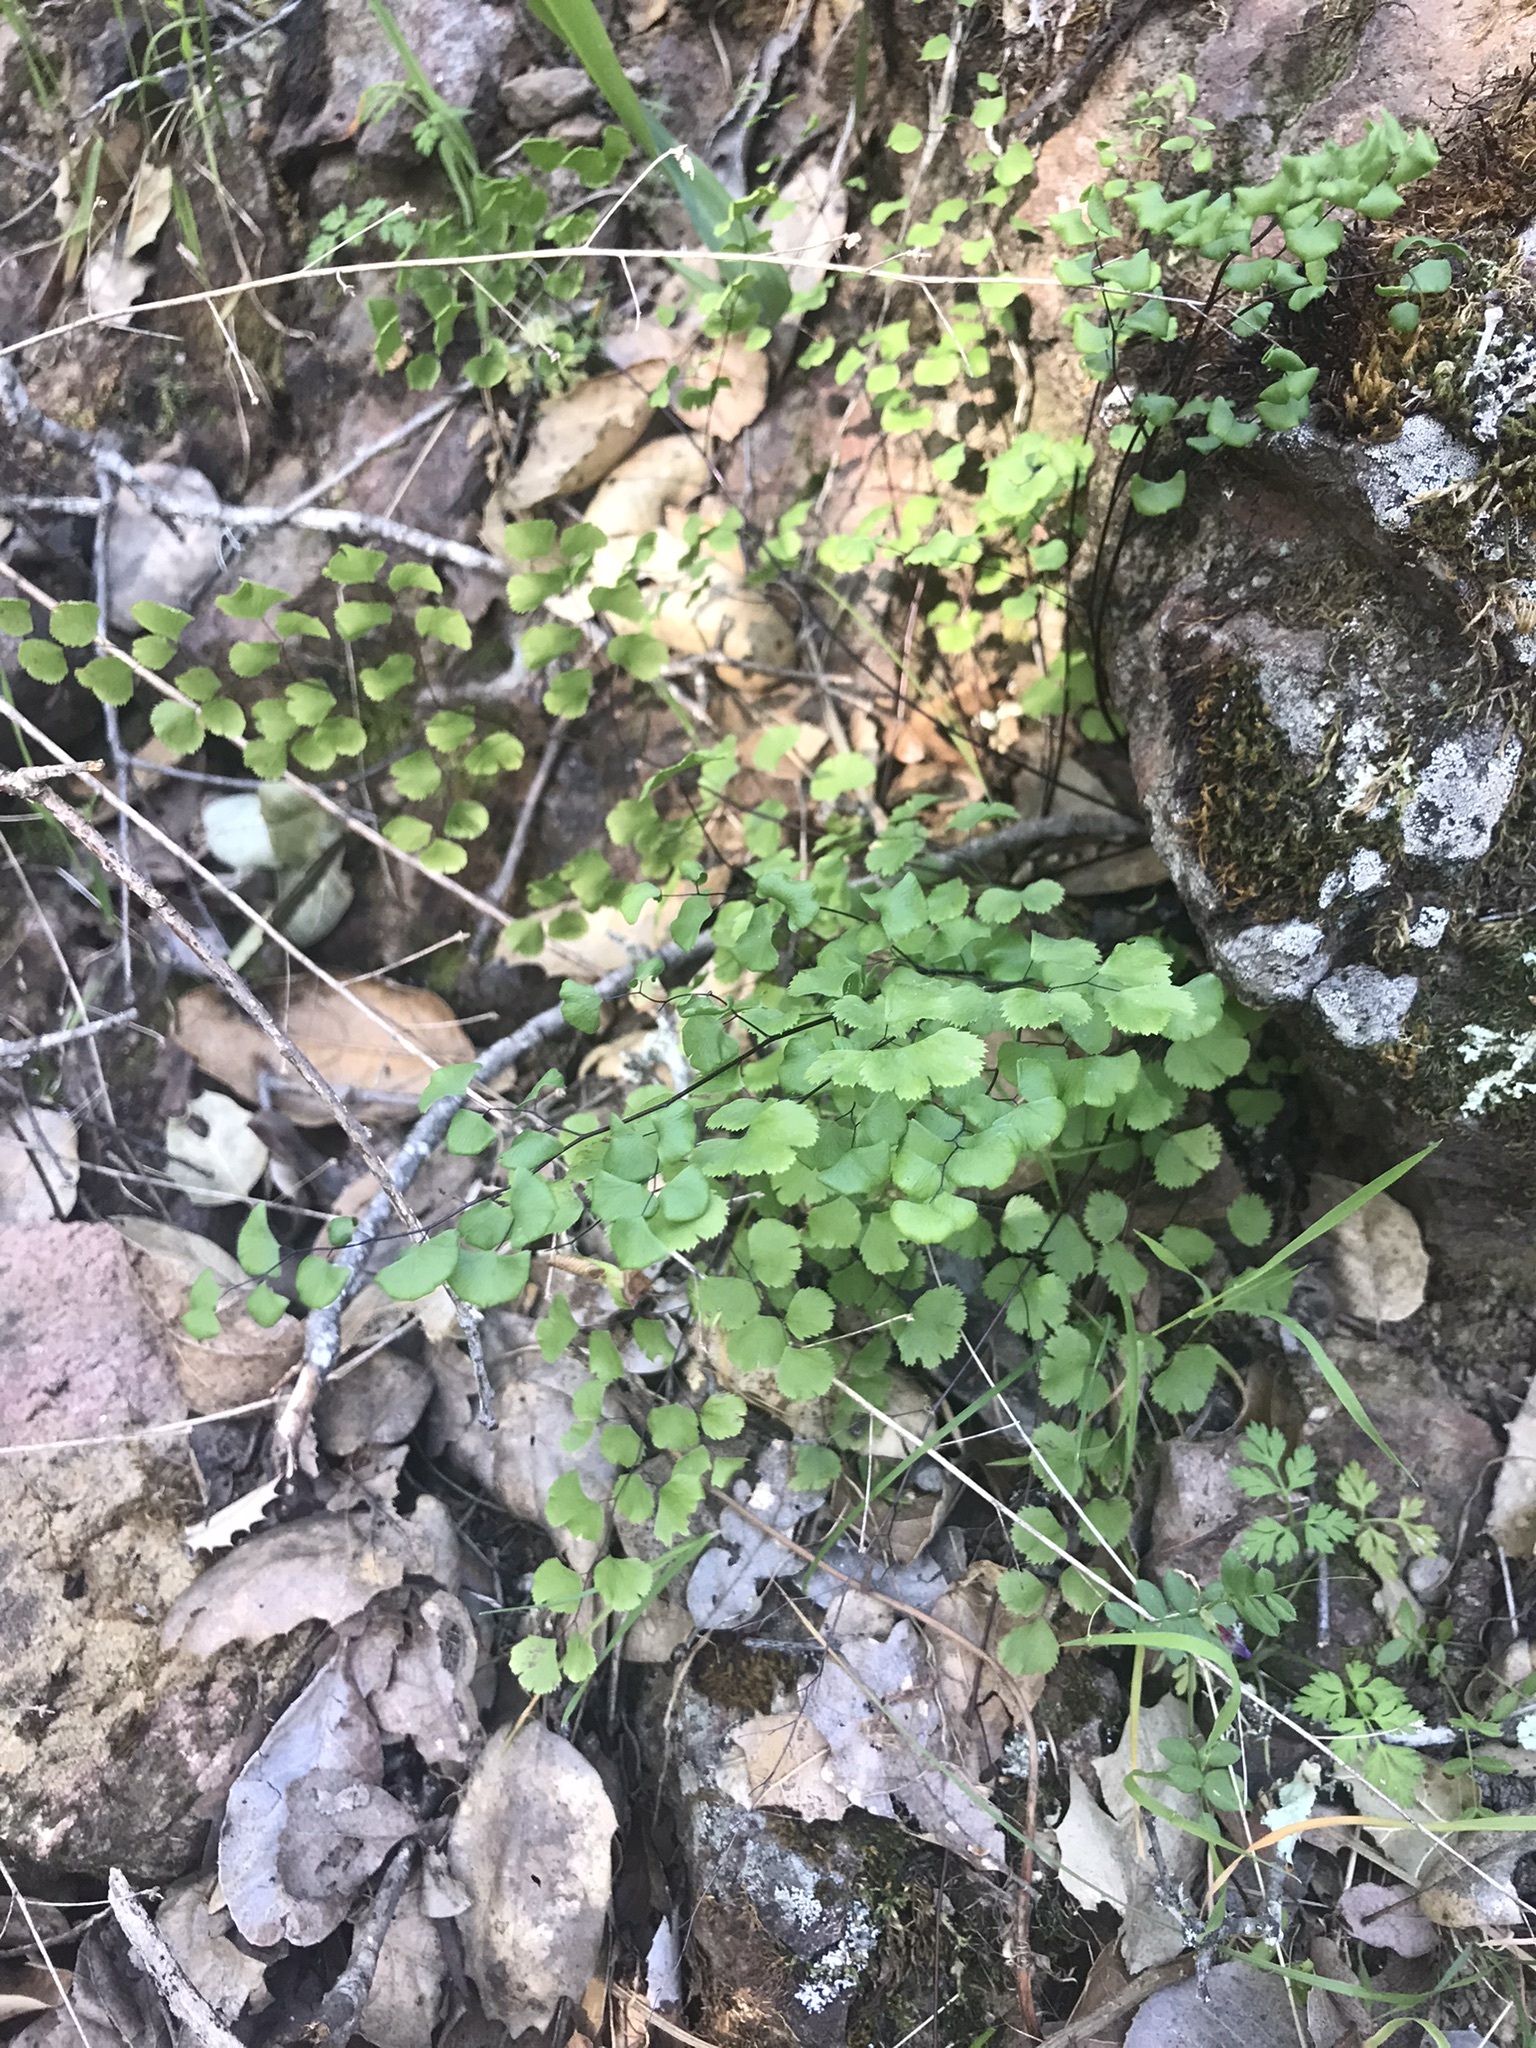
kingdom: Plantae
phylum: Tracheophyta
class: Polypodiopsida
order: Polypodiales
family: Pteridaceae
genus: Adiantum
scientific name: Adiantum jordanii
